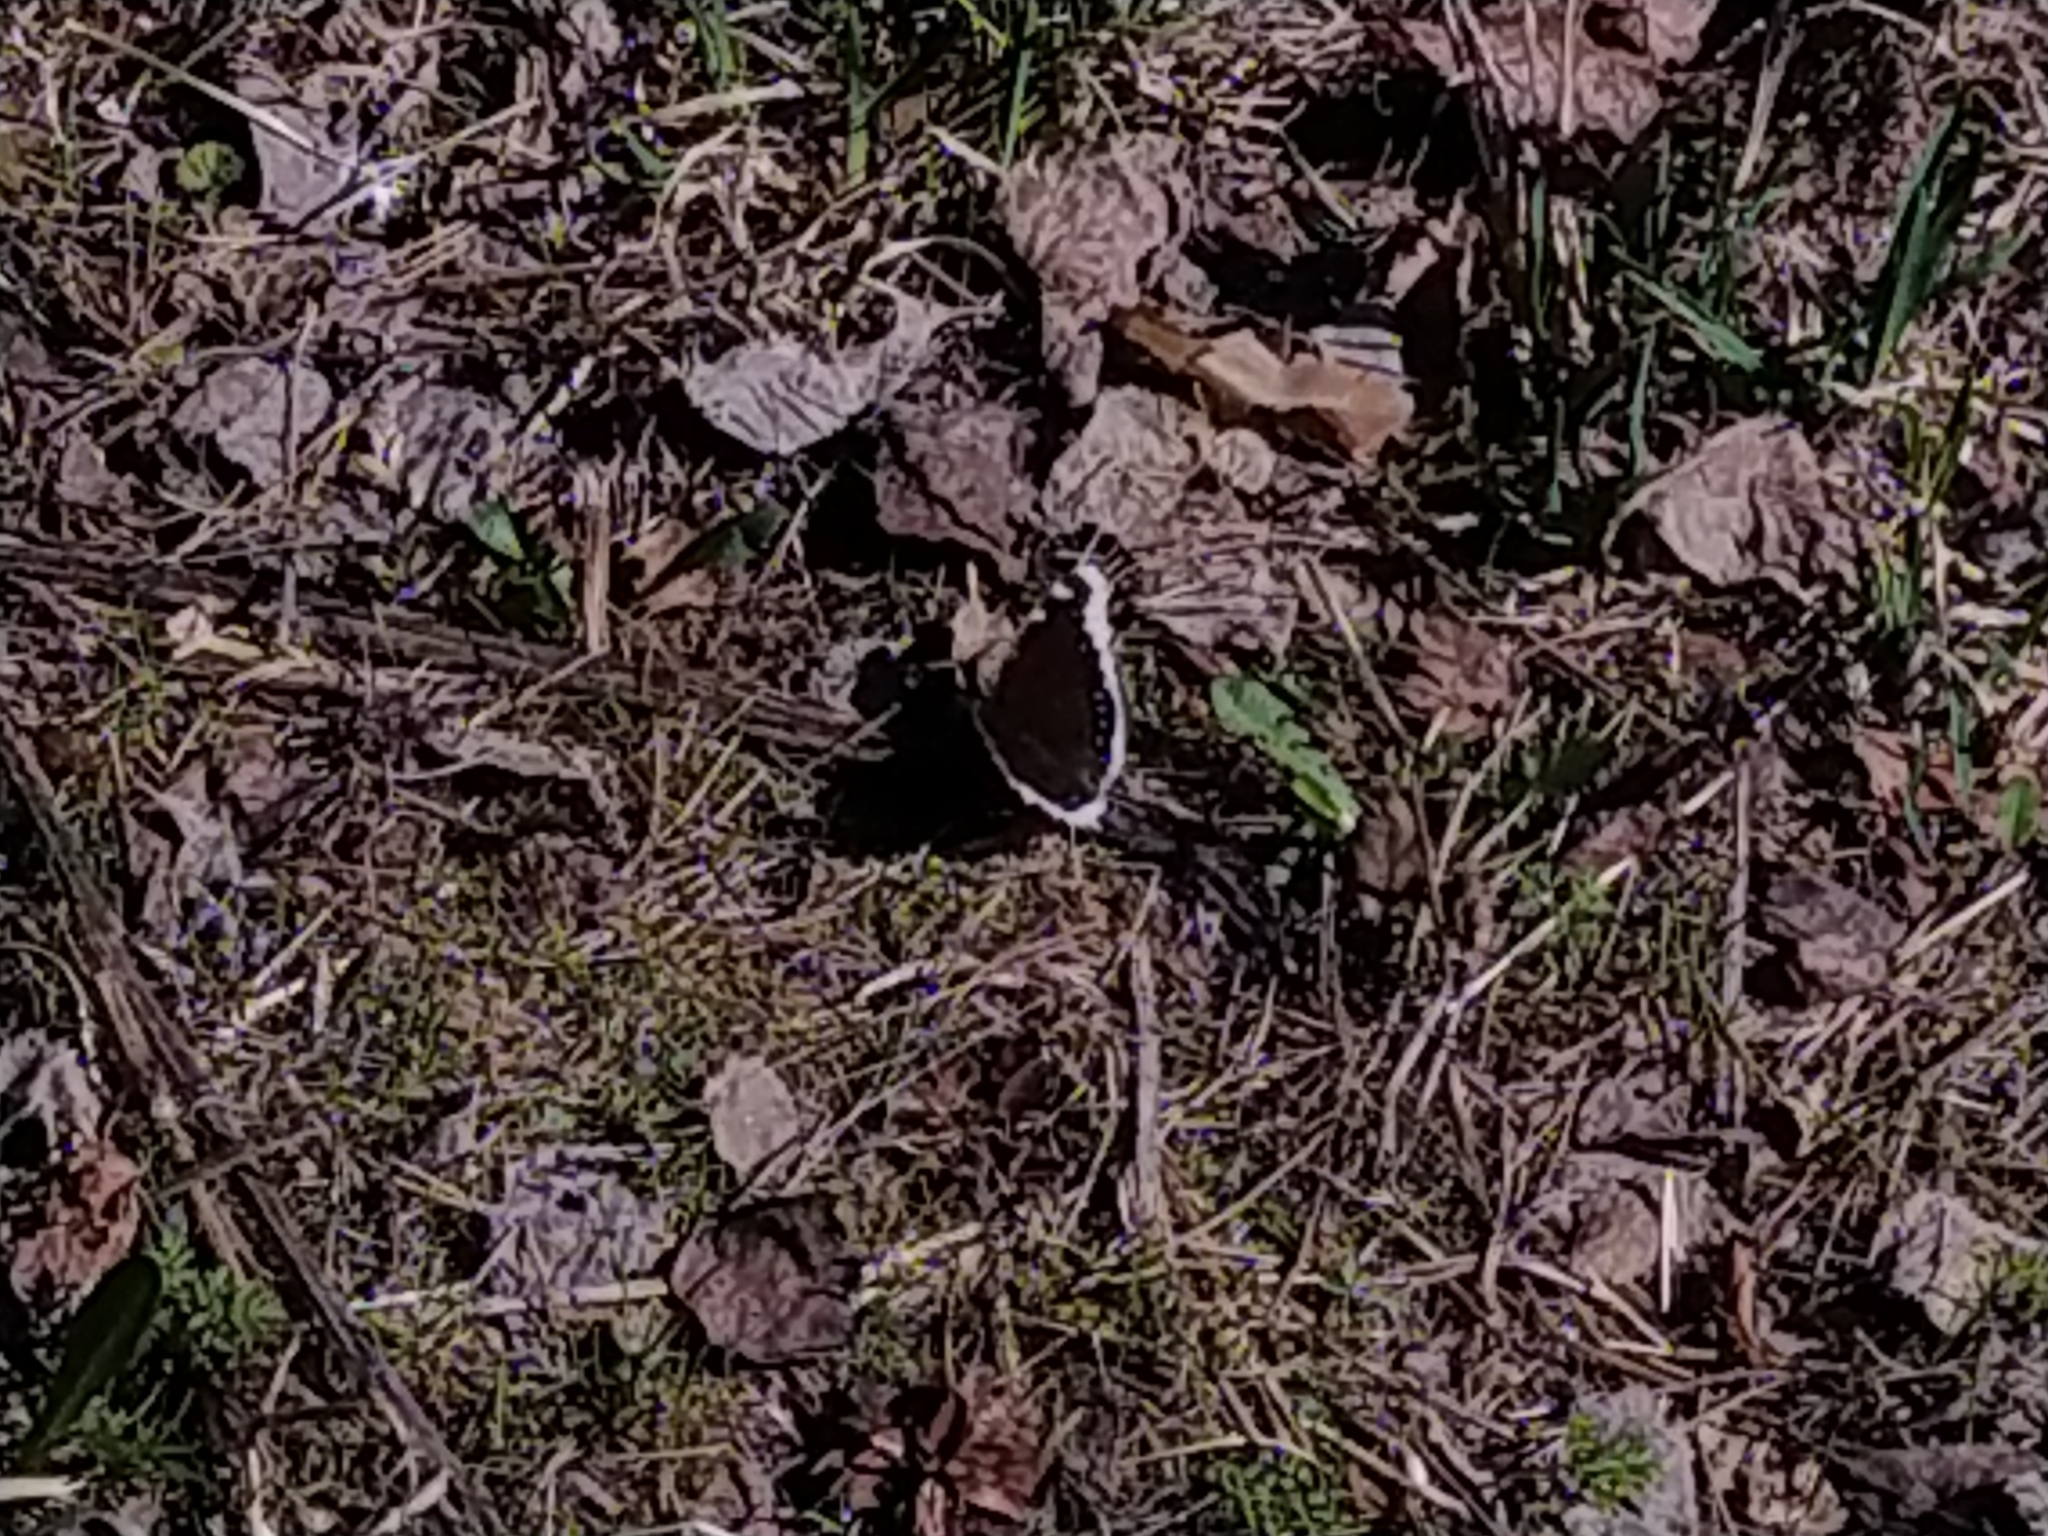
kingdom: Animalia
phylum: Arthropoda
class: Insecta
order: Lepidoptera
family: Nymphalidae
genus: Nymphalis
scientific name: Nymphalis antiopa
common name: Camberwell beauty
